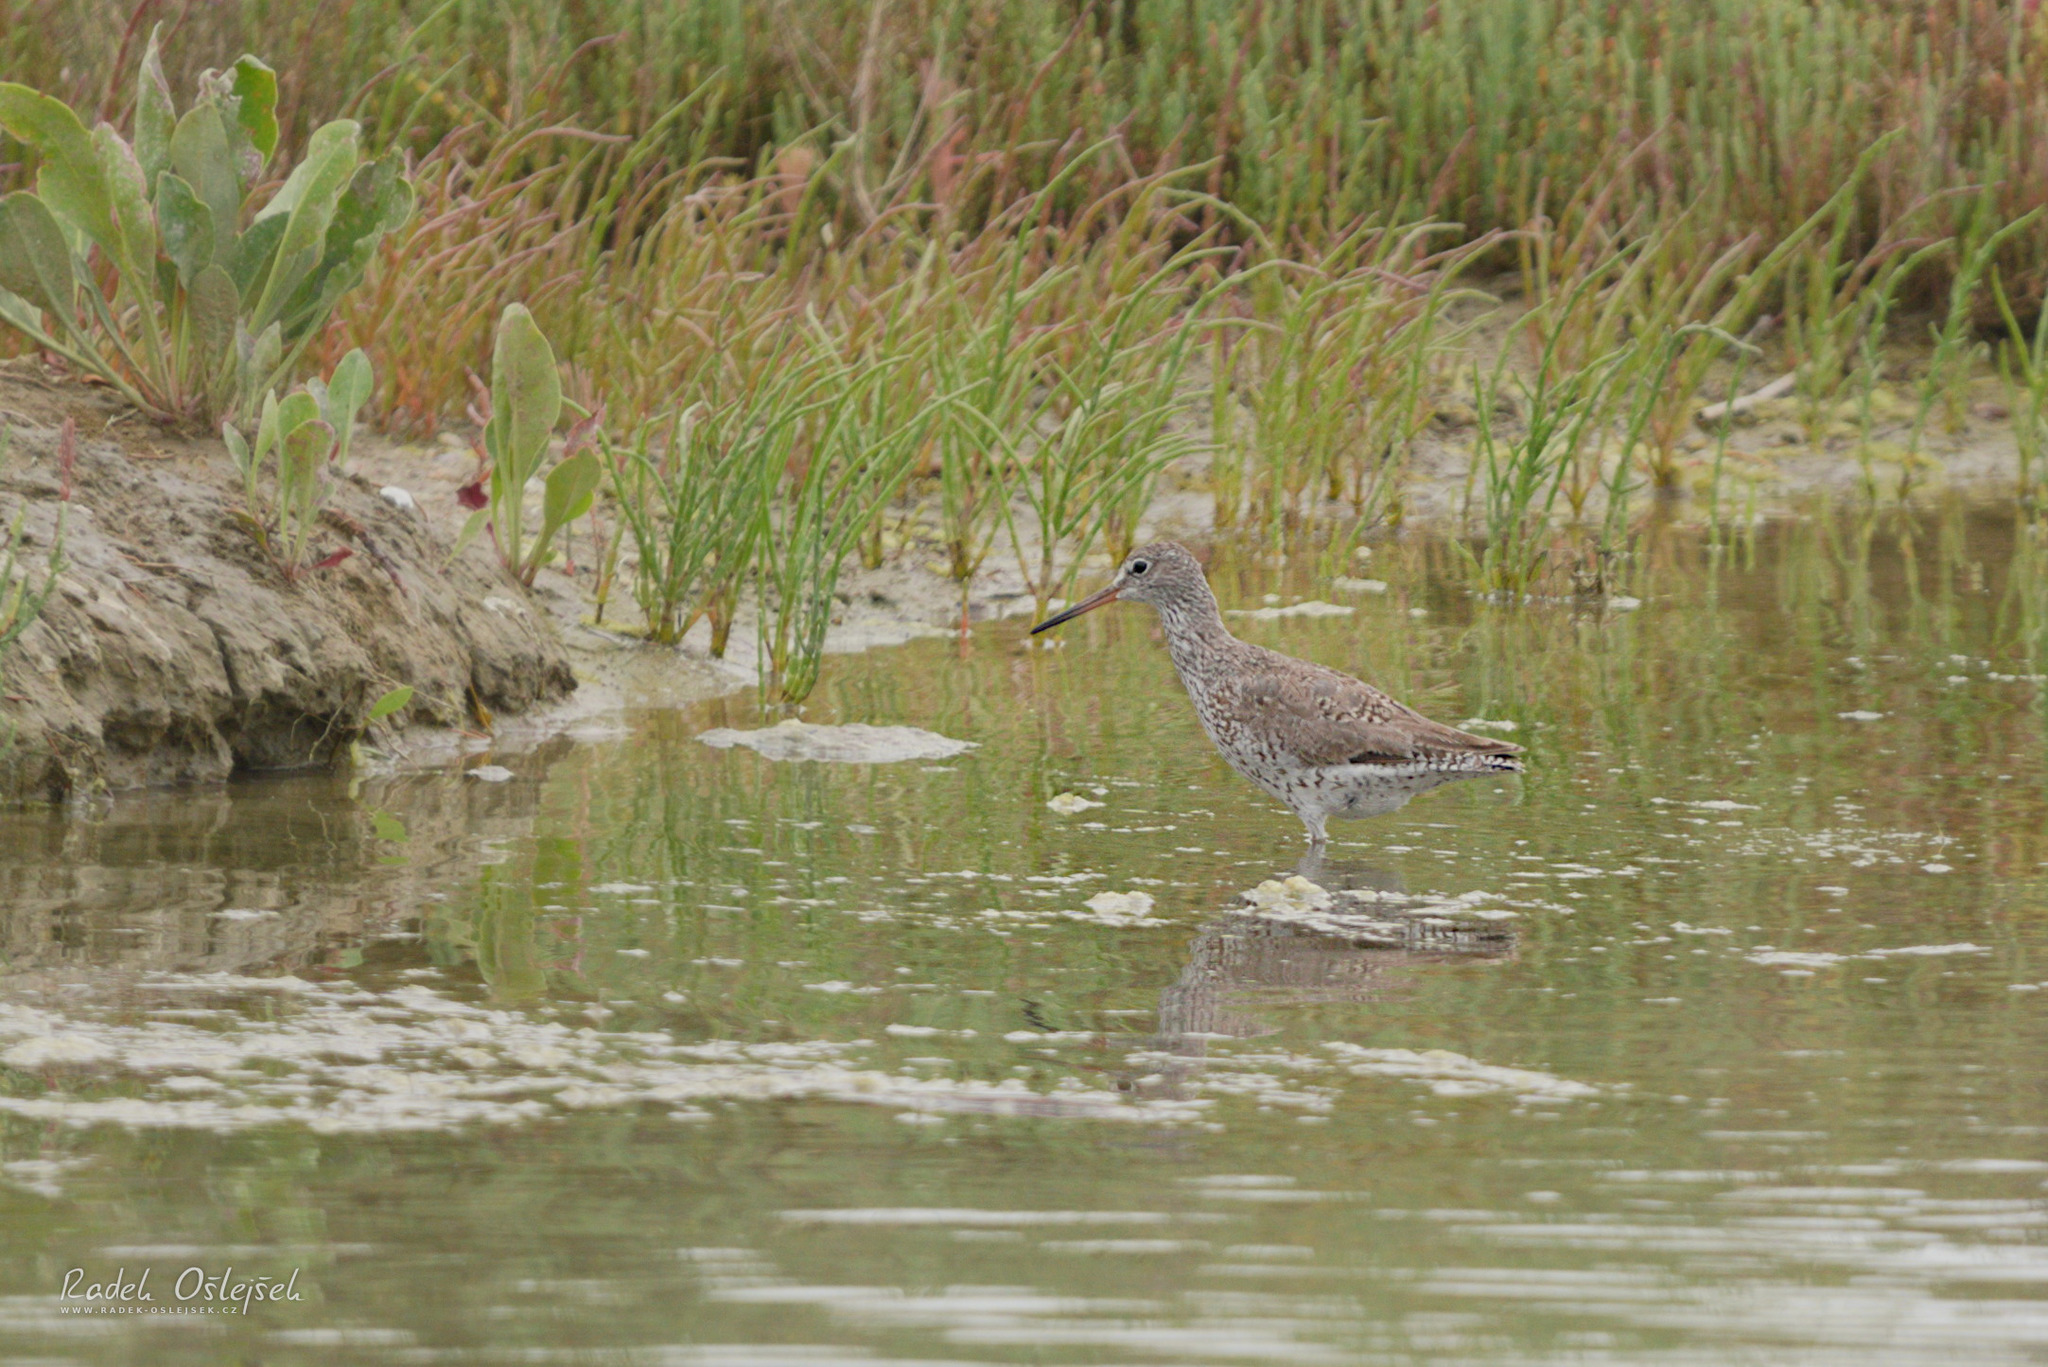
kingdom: Animalia
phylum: Chordata
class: Aves
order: Charadriiformes
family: Scolopacidae
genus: Tringa
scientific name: Tringa totanus
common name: Common redshank
